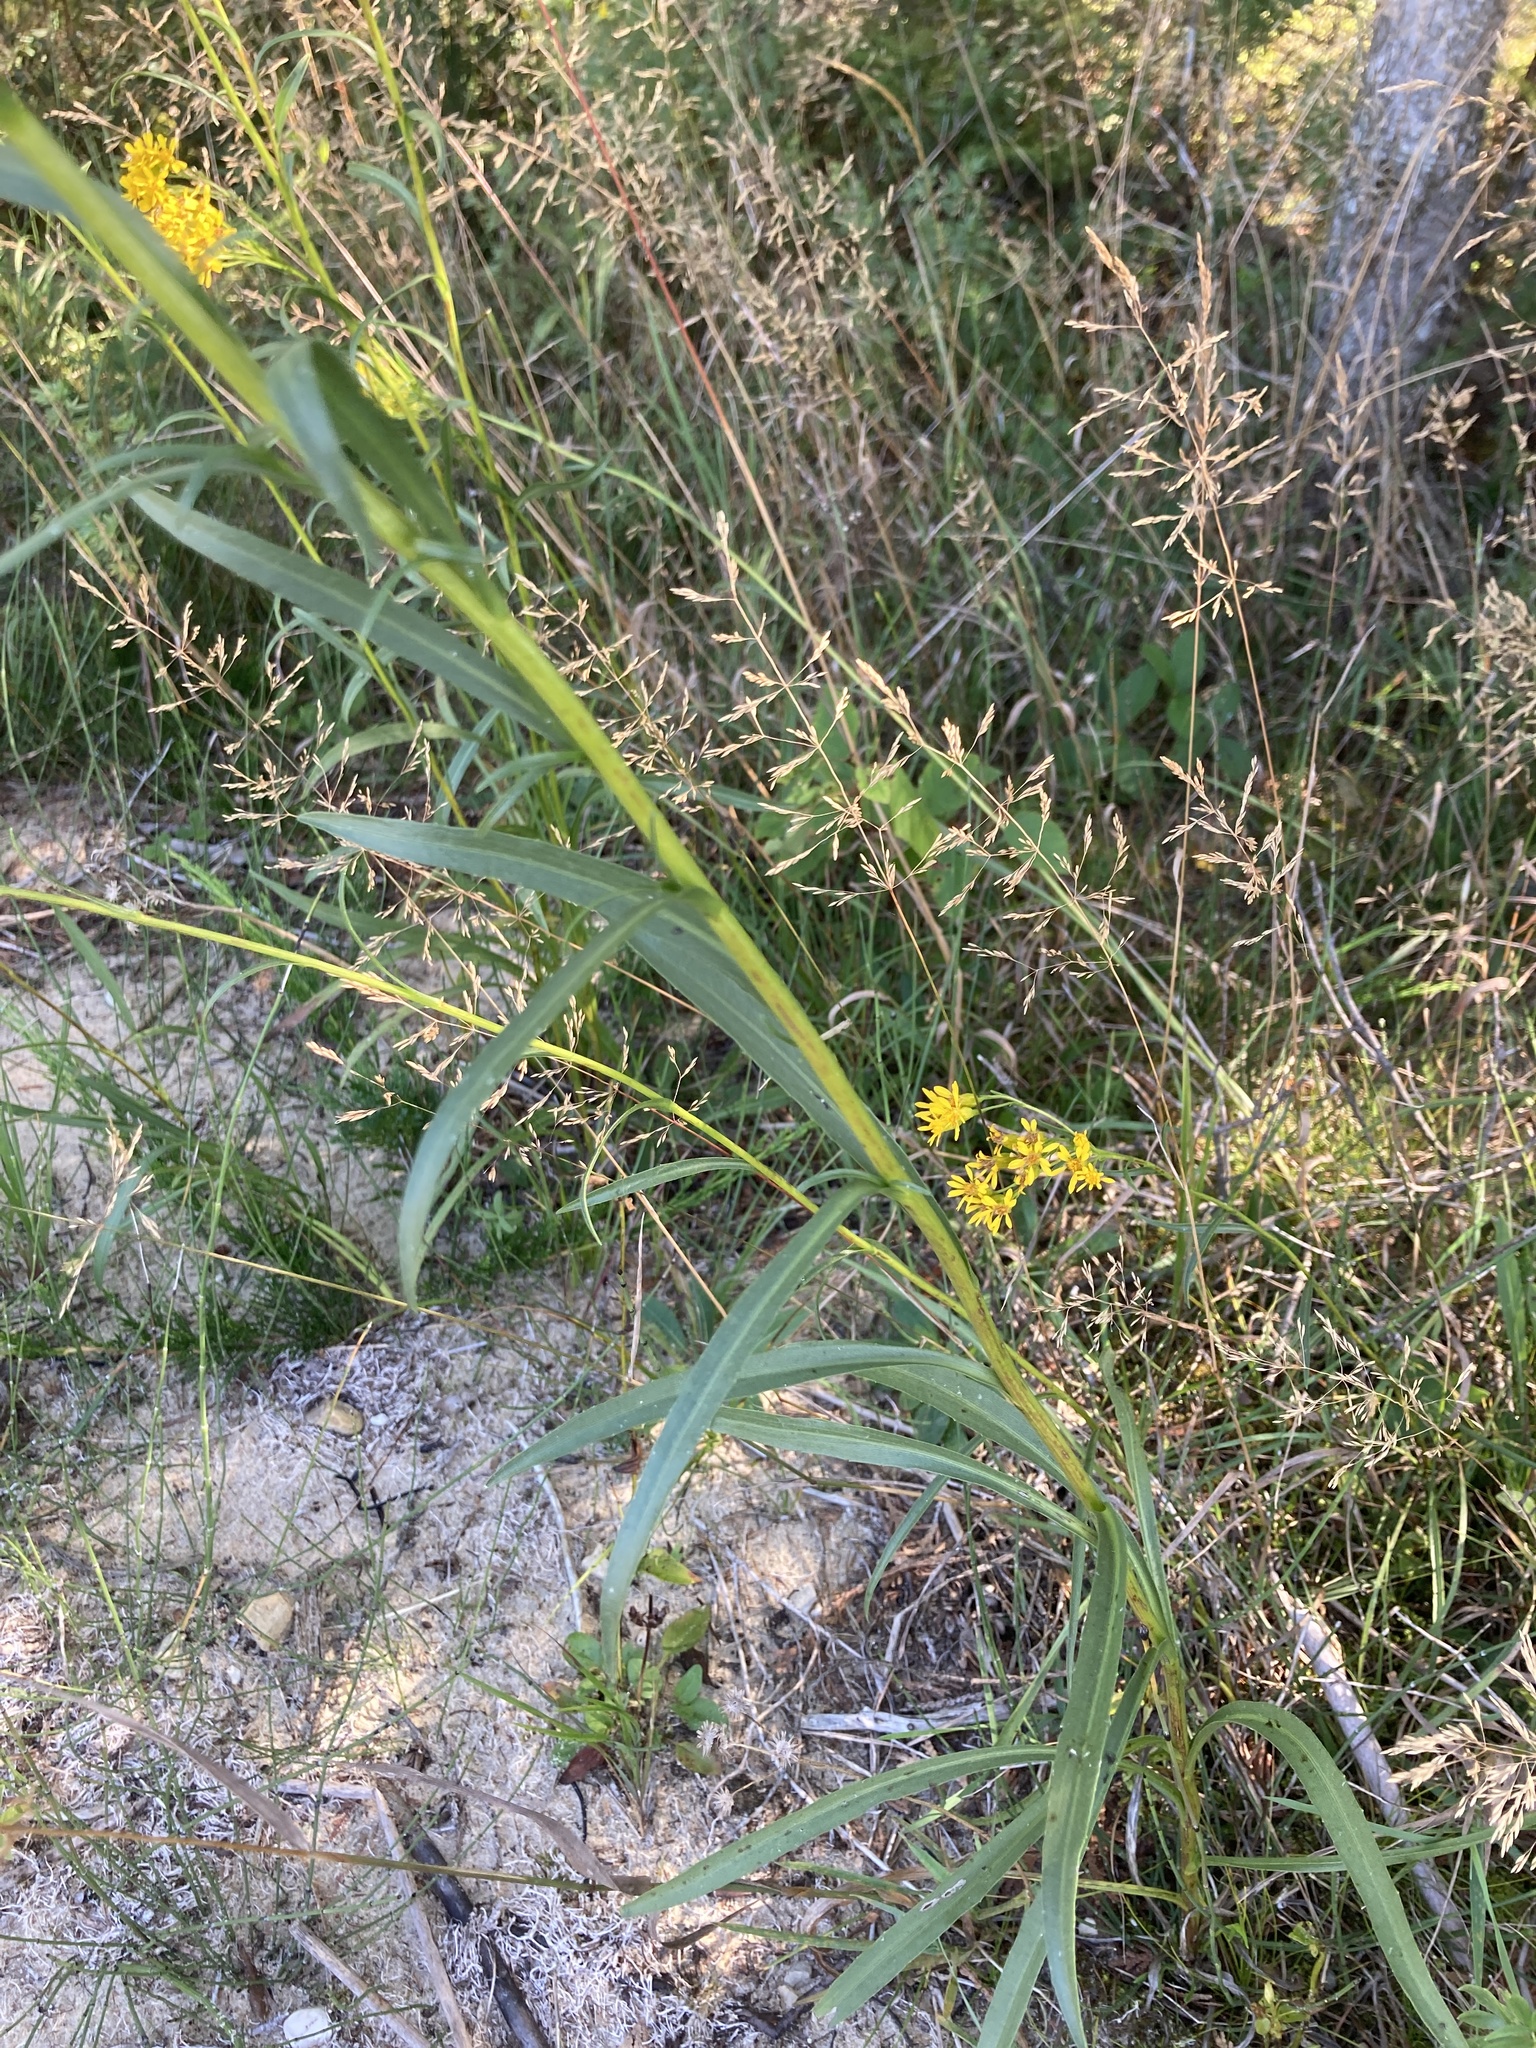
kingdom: Plantae
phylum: Tracheophyta
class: Magnoliopsida
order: Asterales
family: Asteraceae
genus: Solidago
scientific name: Solidago houghtonii
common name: Houghton's goldenrod
